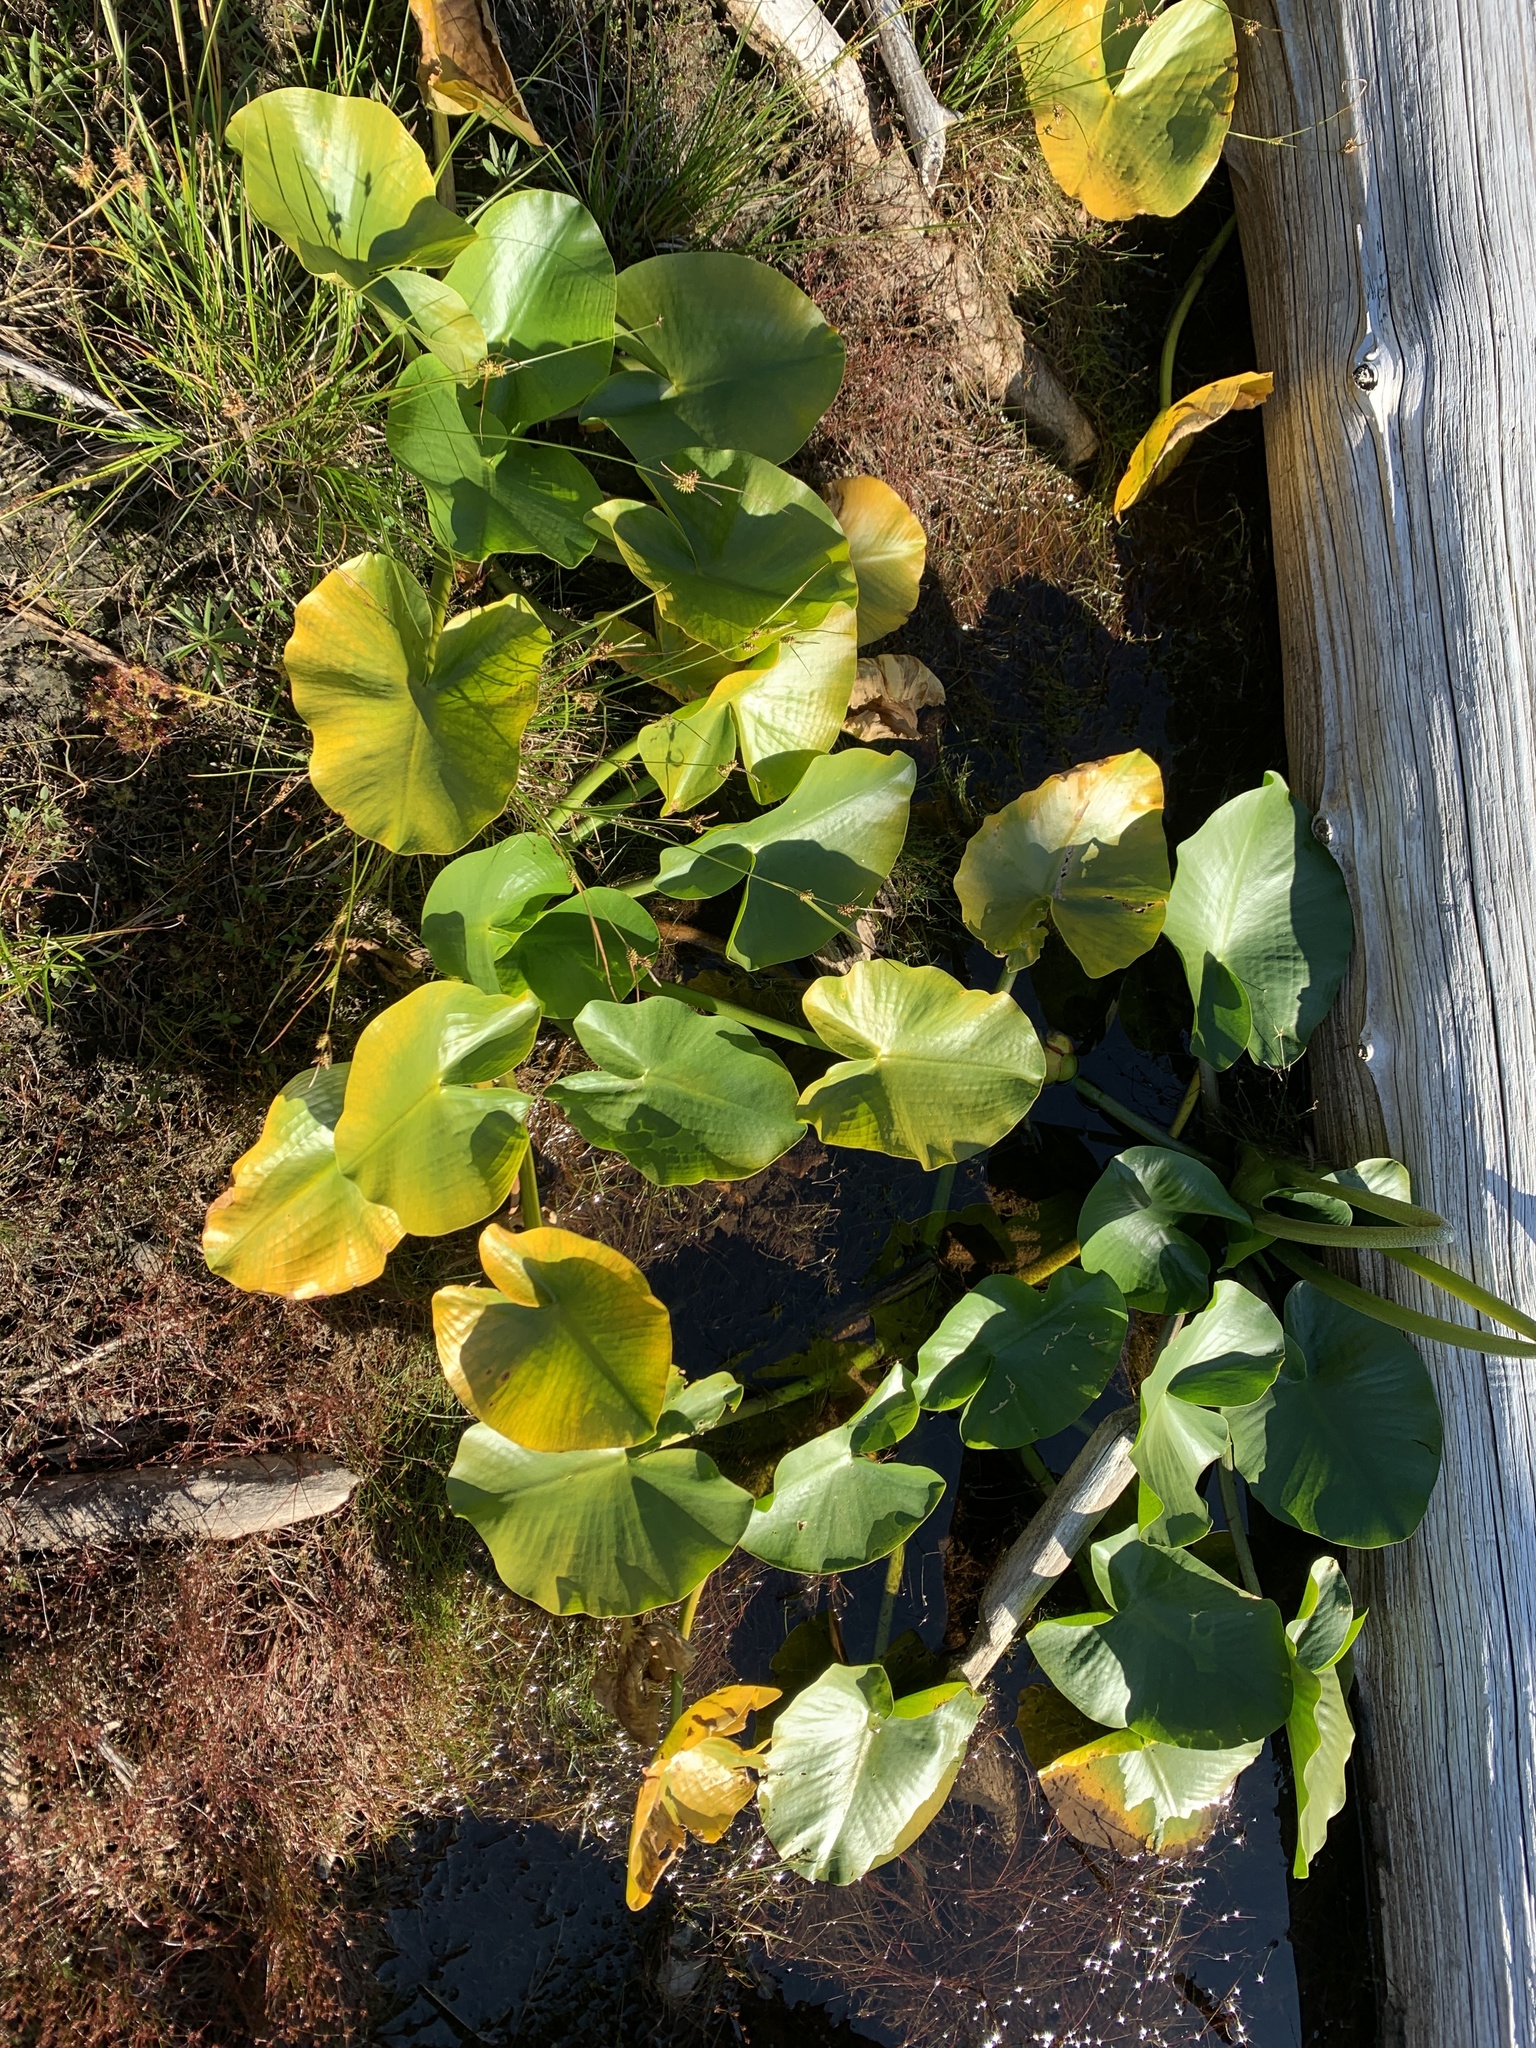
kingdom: Plantae
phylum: Tracheophyta
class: Magnoliopsida
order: Nymphaeales
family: Nymphaeaceae
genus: Nuphar
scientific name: Nuphar polysepala
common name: Rocky mountain cow-lily
